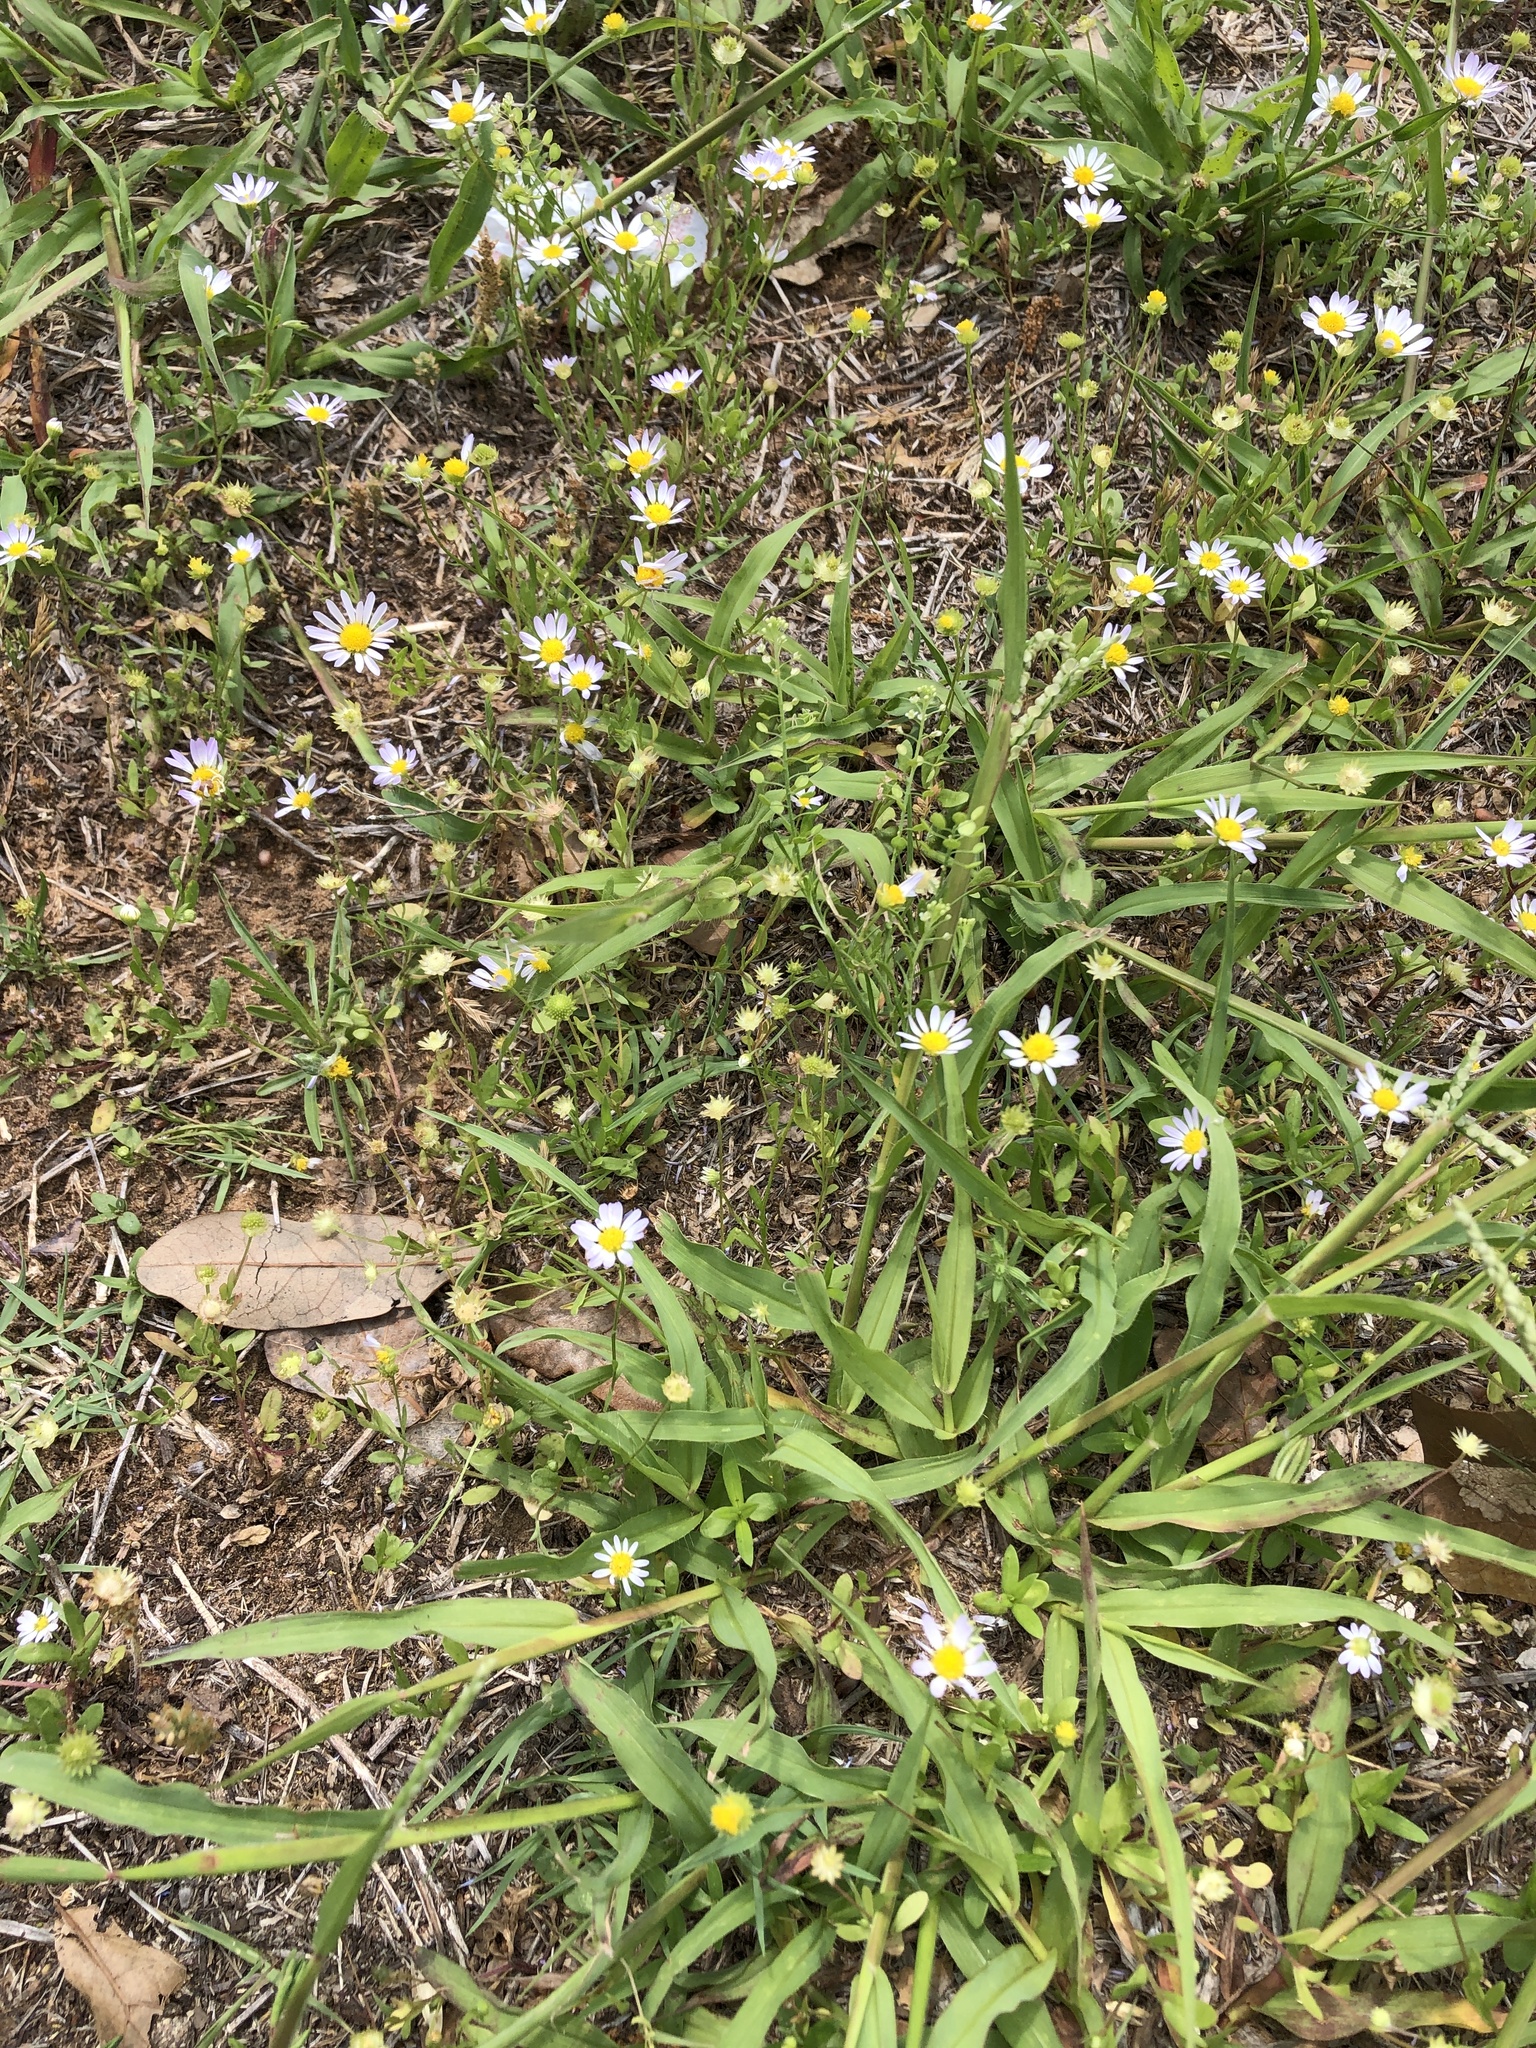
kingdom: Plantae
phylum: Tracheophyta
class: Magnoliopsida
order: Brassicales
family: Brassicaceae
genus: Lepidium
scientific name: Lepidium virginicum
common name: Least pepperwort
